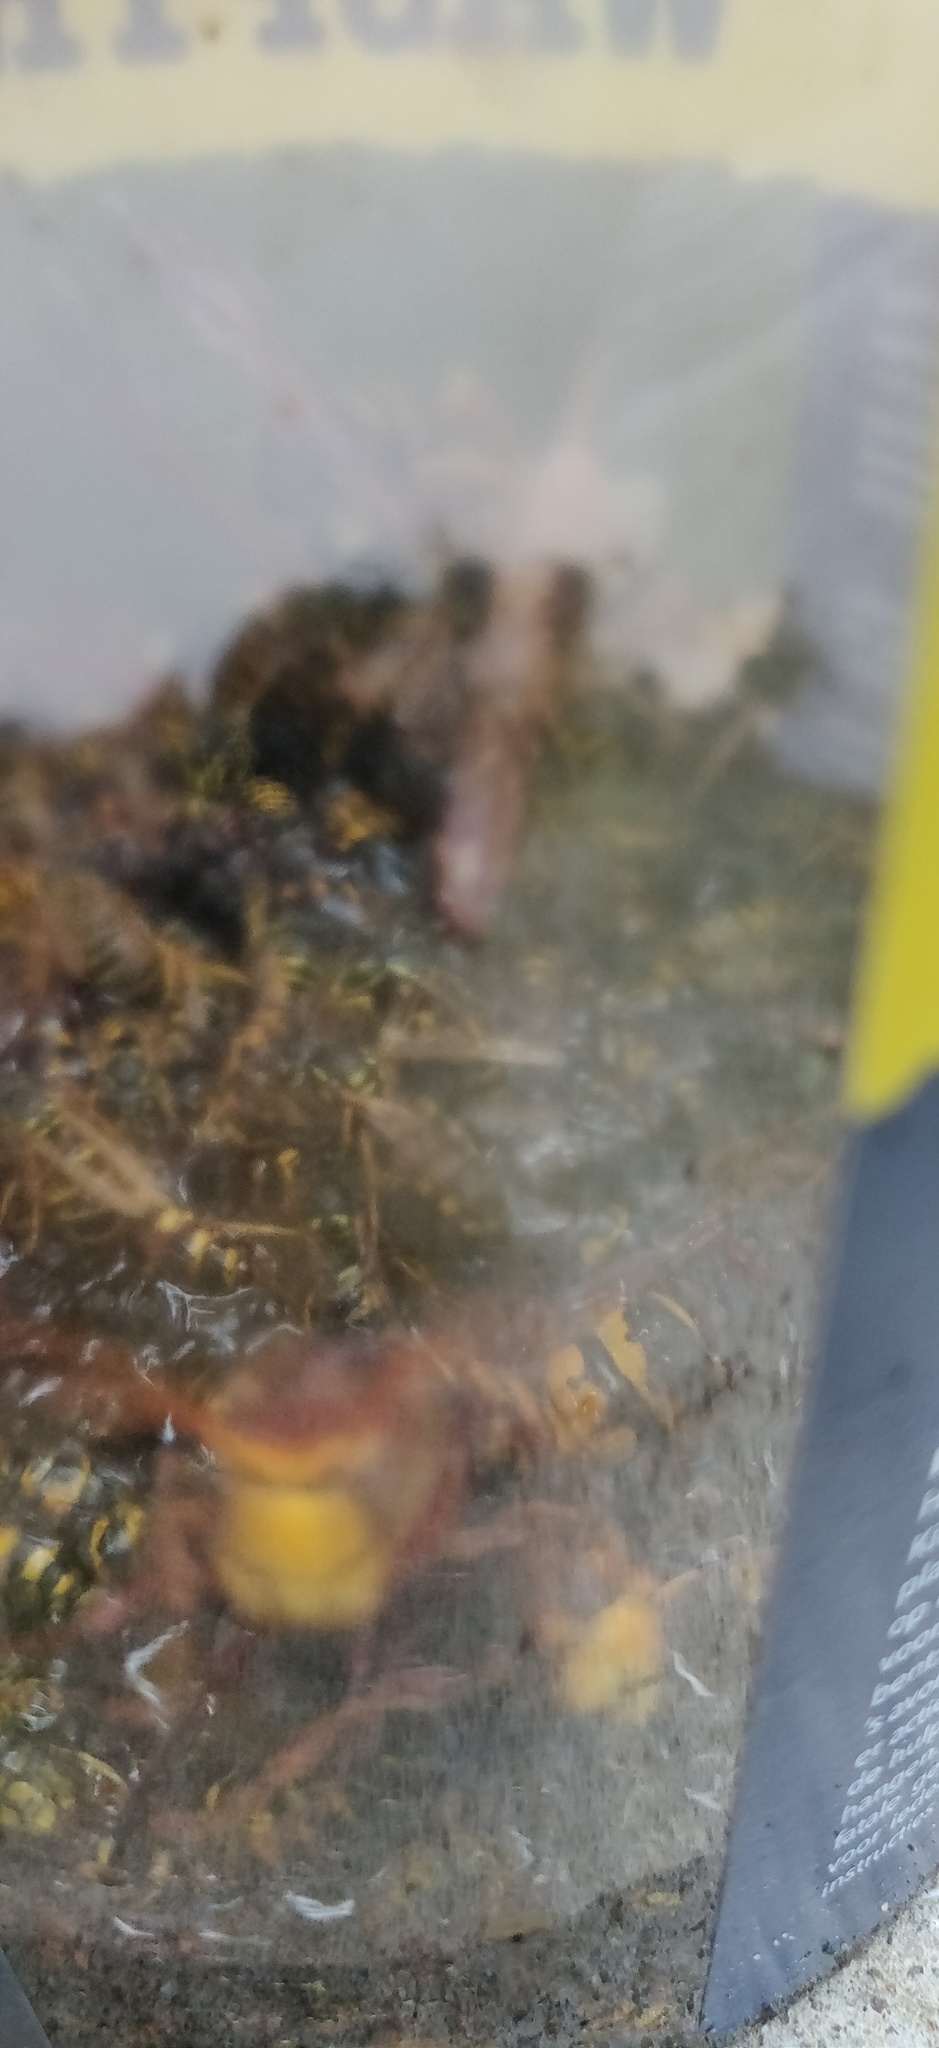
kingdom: Animalia
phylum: Arthropoda
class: Insecta
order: Hymenoptera
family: Vespidae
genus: Vespa
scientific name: Vespa crabro
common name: Hornet
